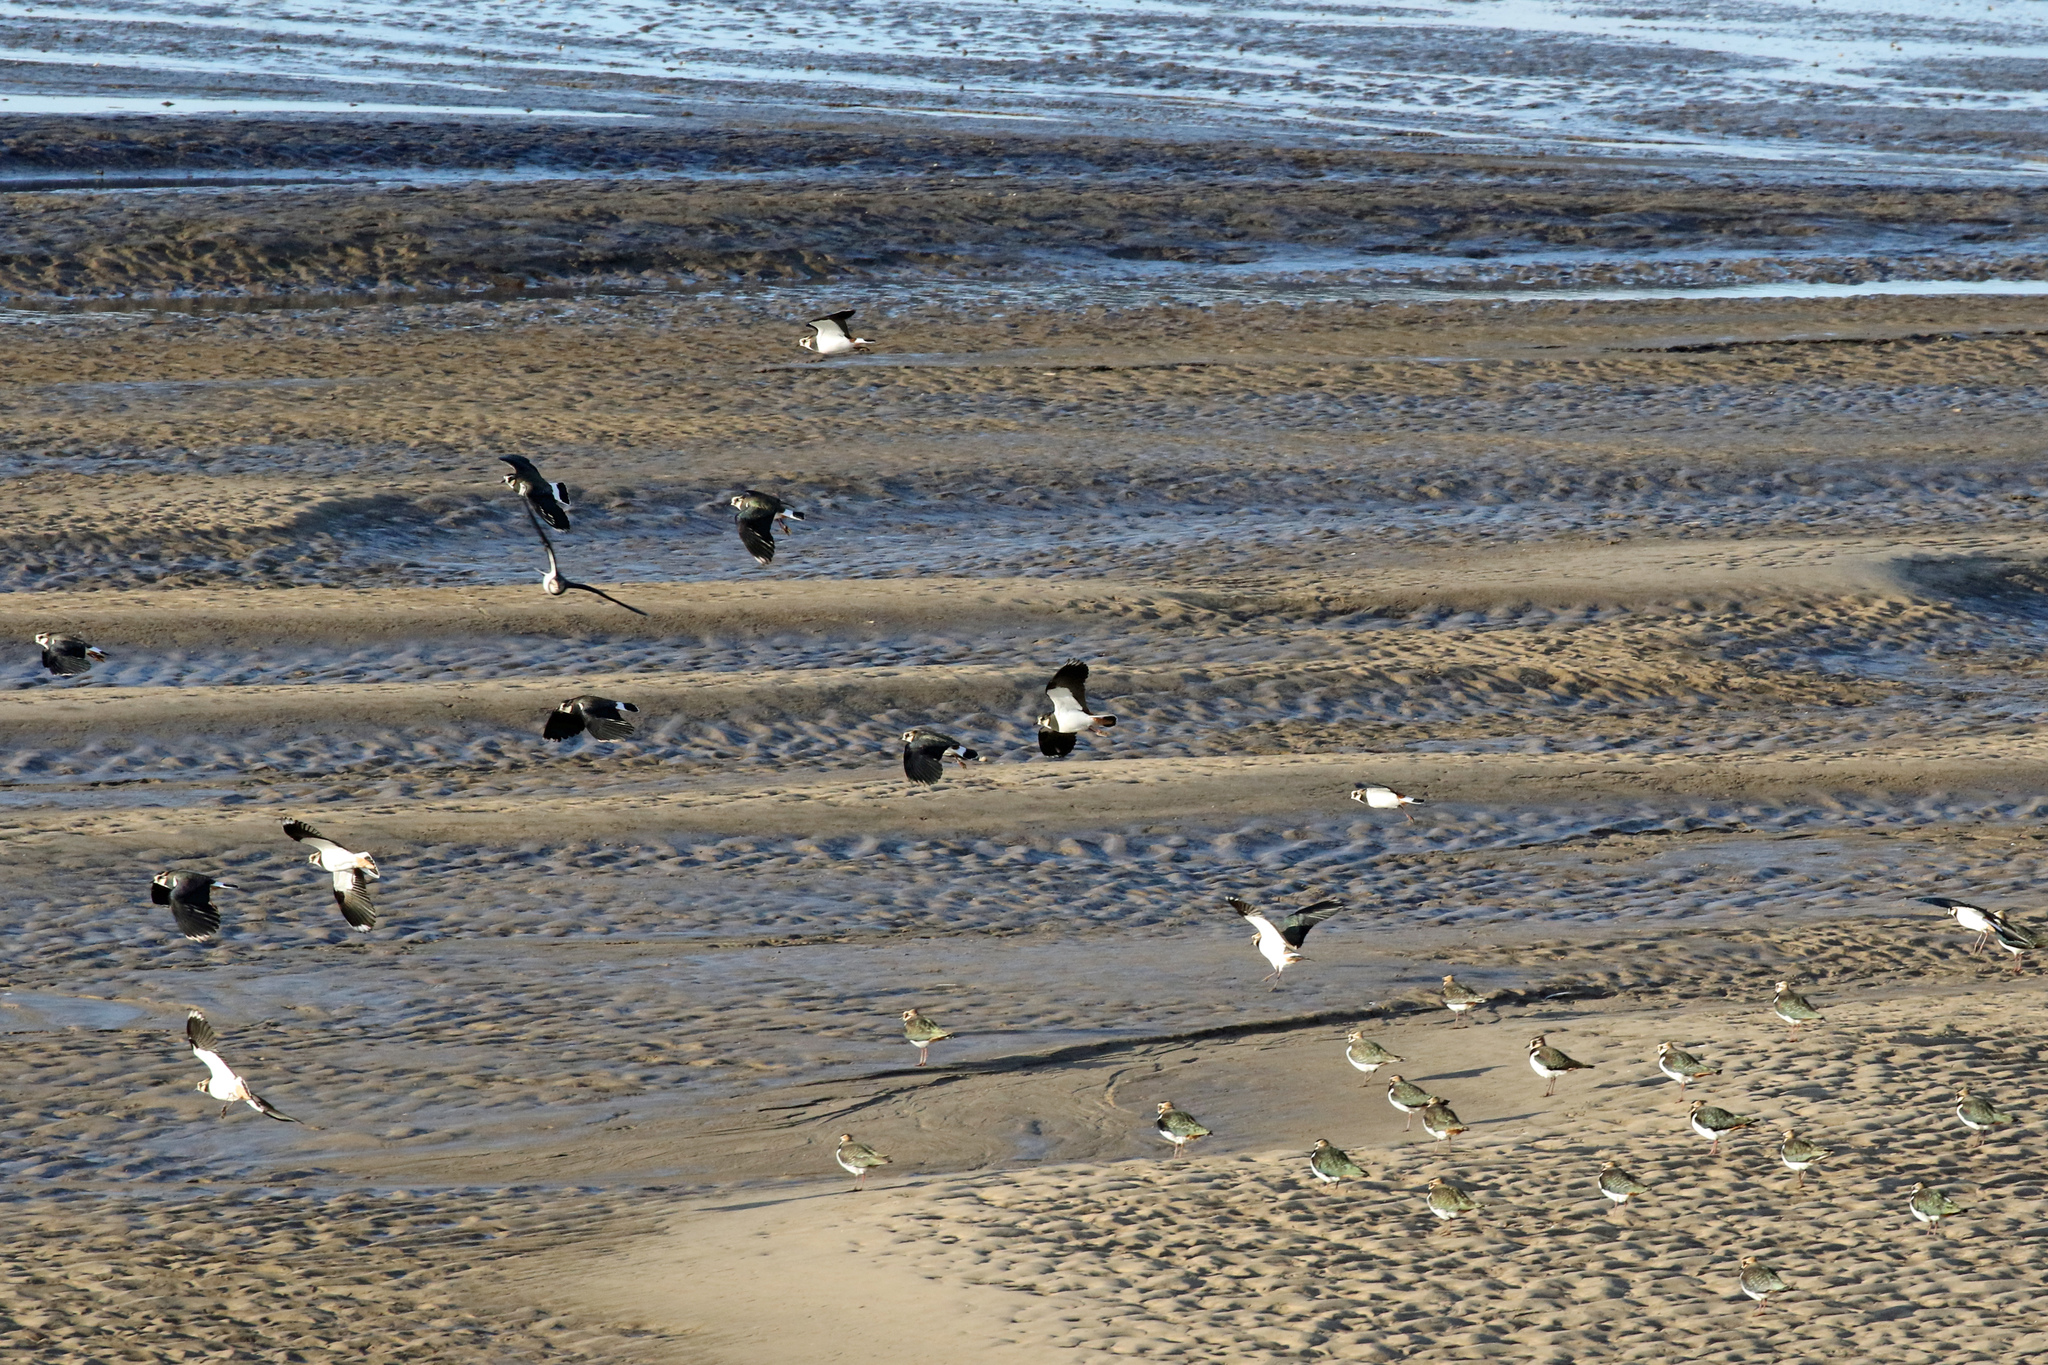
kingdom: Animalia
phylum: Chordata
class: Aves
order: Charadriiformes
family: Charadriidae
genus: Vanellus
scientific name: Vanellus vanellus
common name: Northern lapwing
